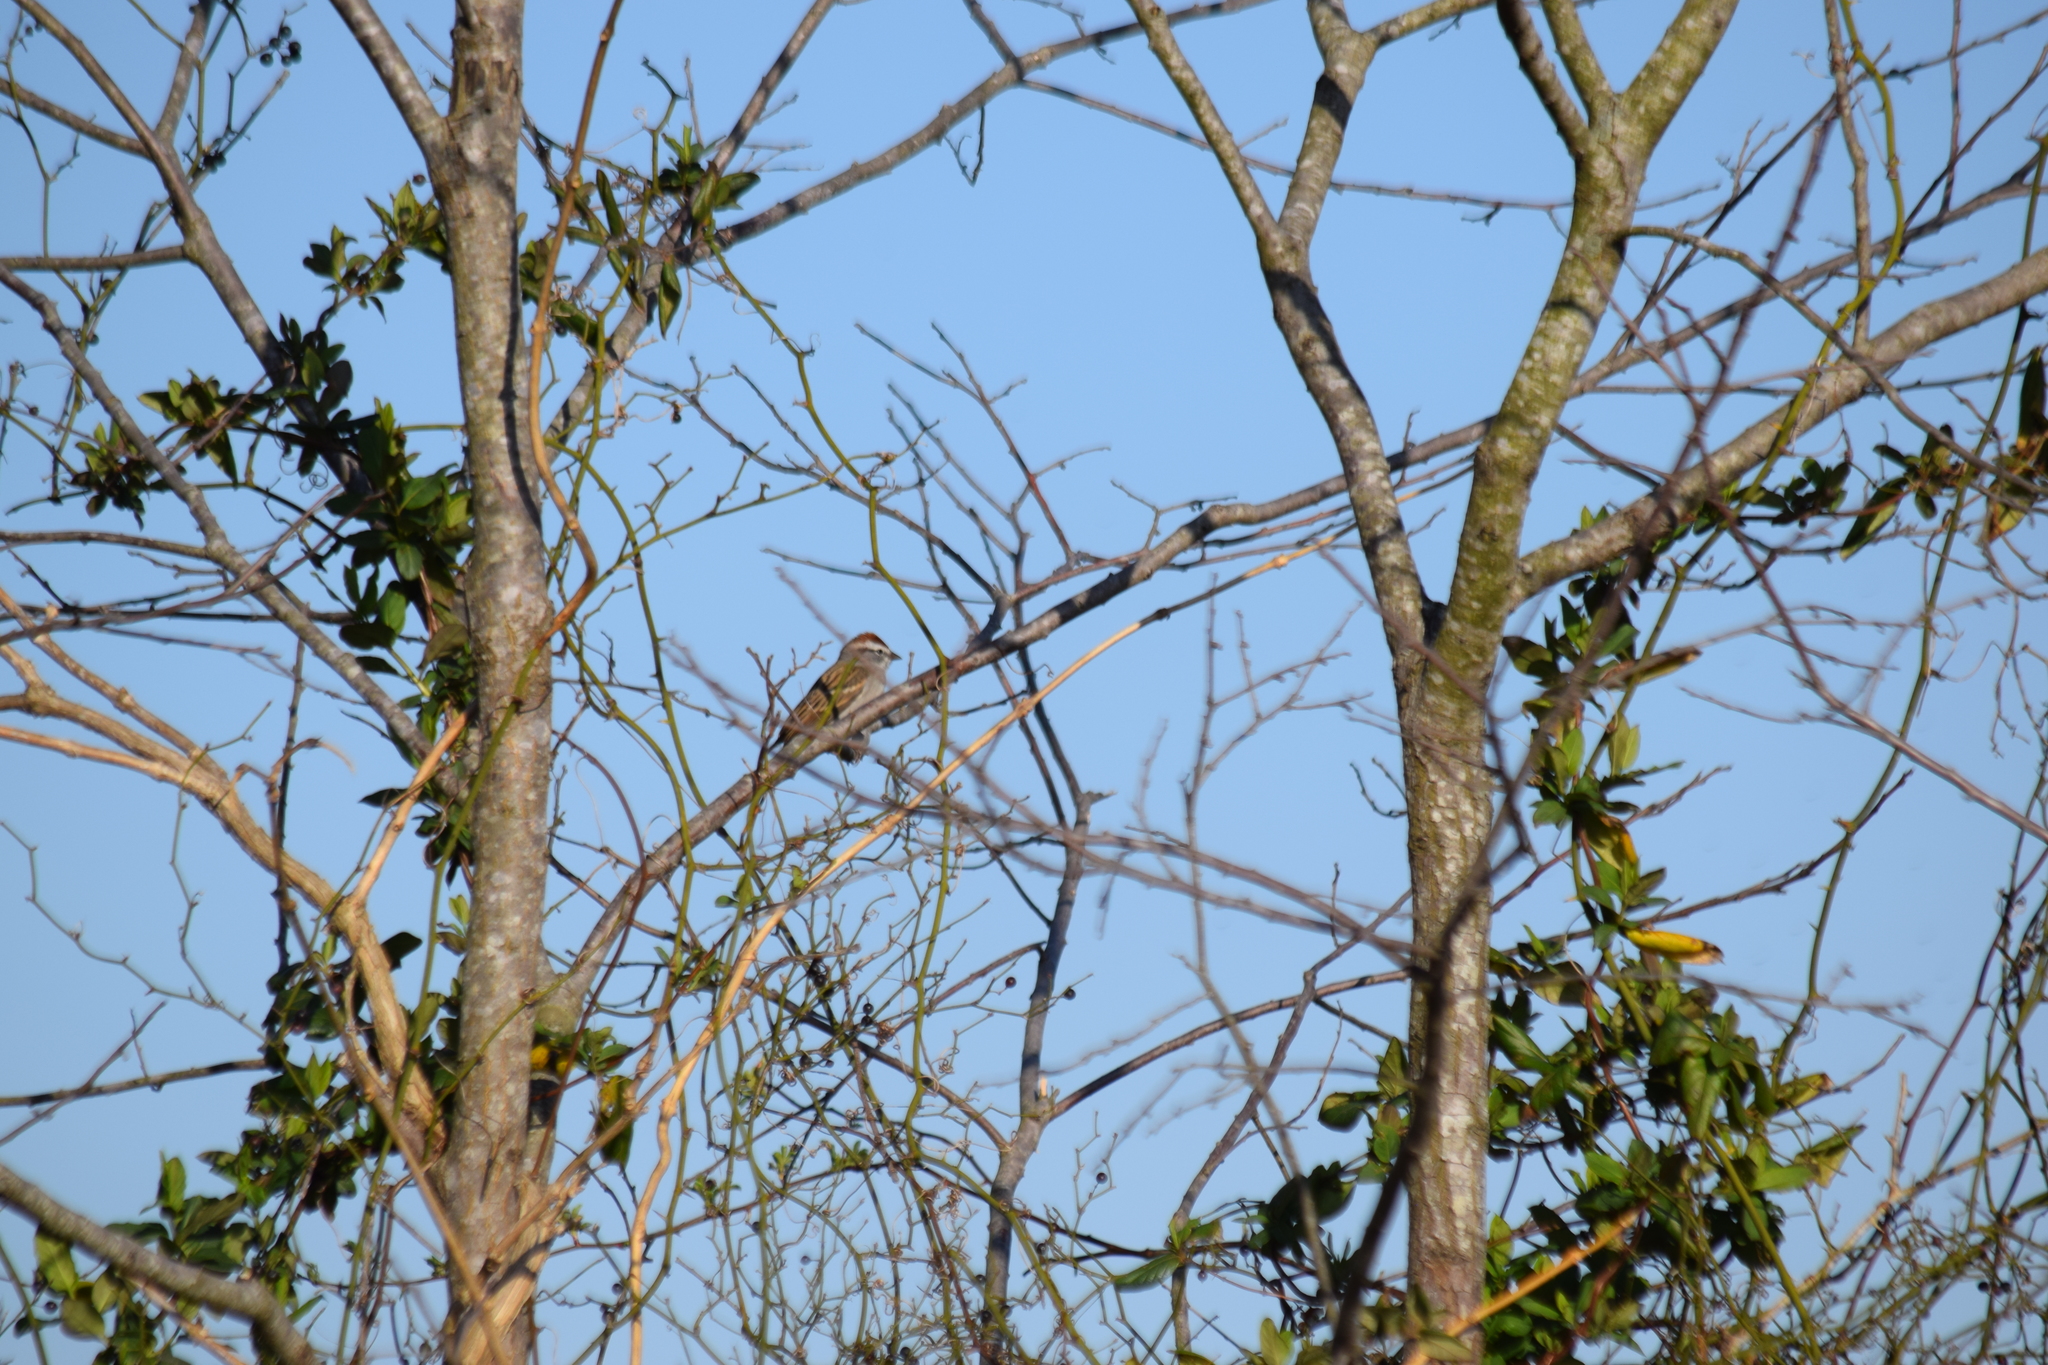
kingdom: Animalia
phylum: Chordata
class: Aves
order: Passeriformes
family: Passerellidae
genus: Spizella
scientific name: Spizella passerina
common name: Chipping sparrow
